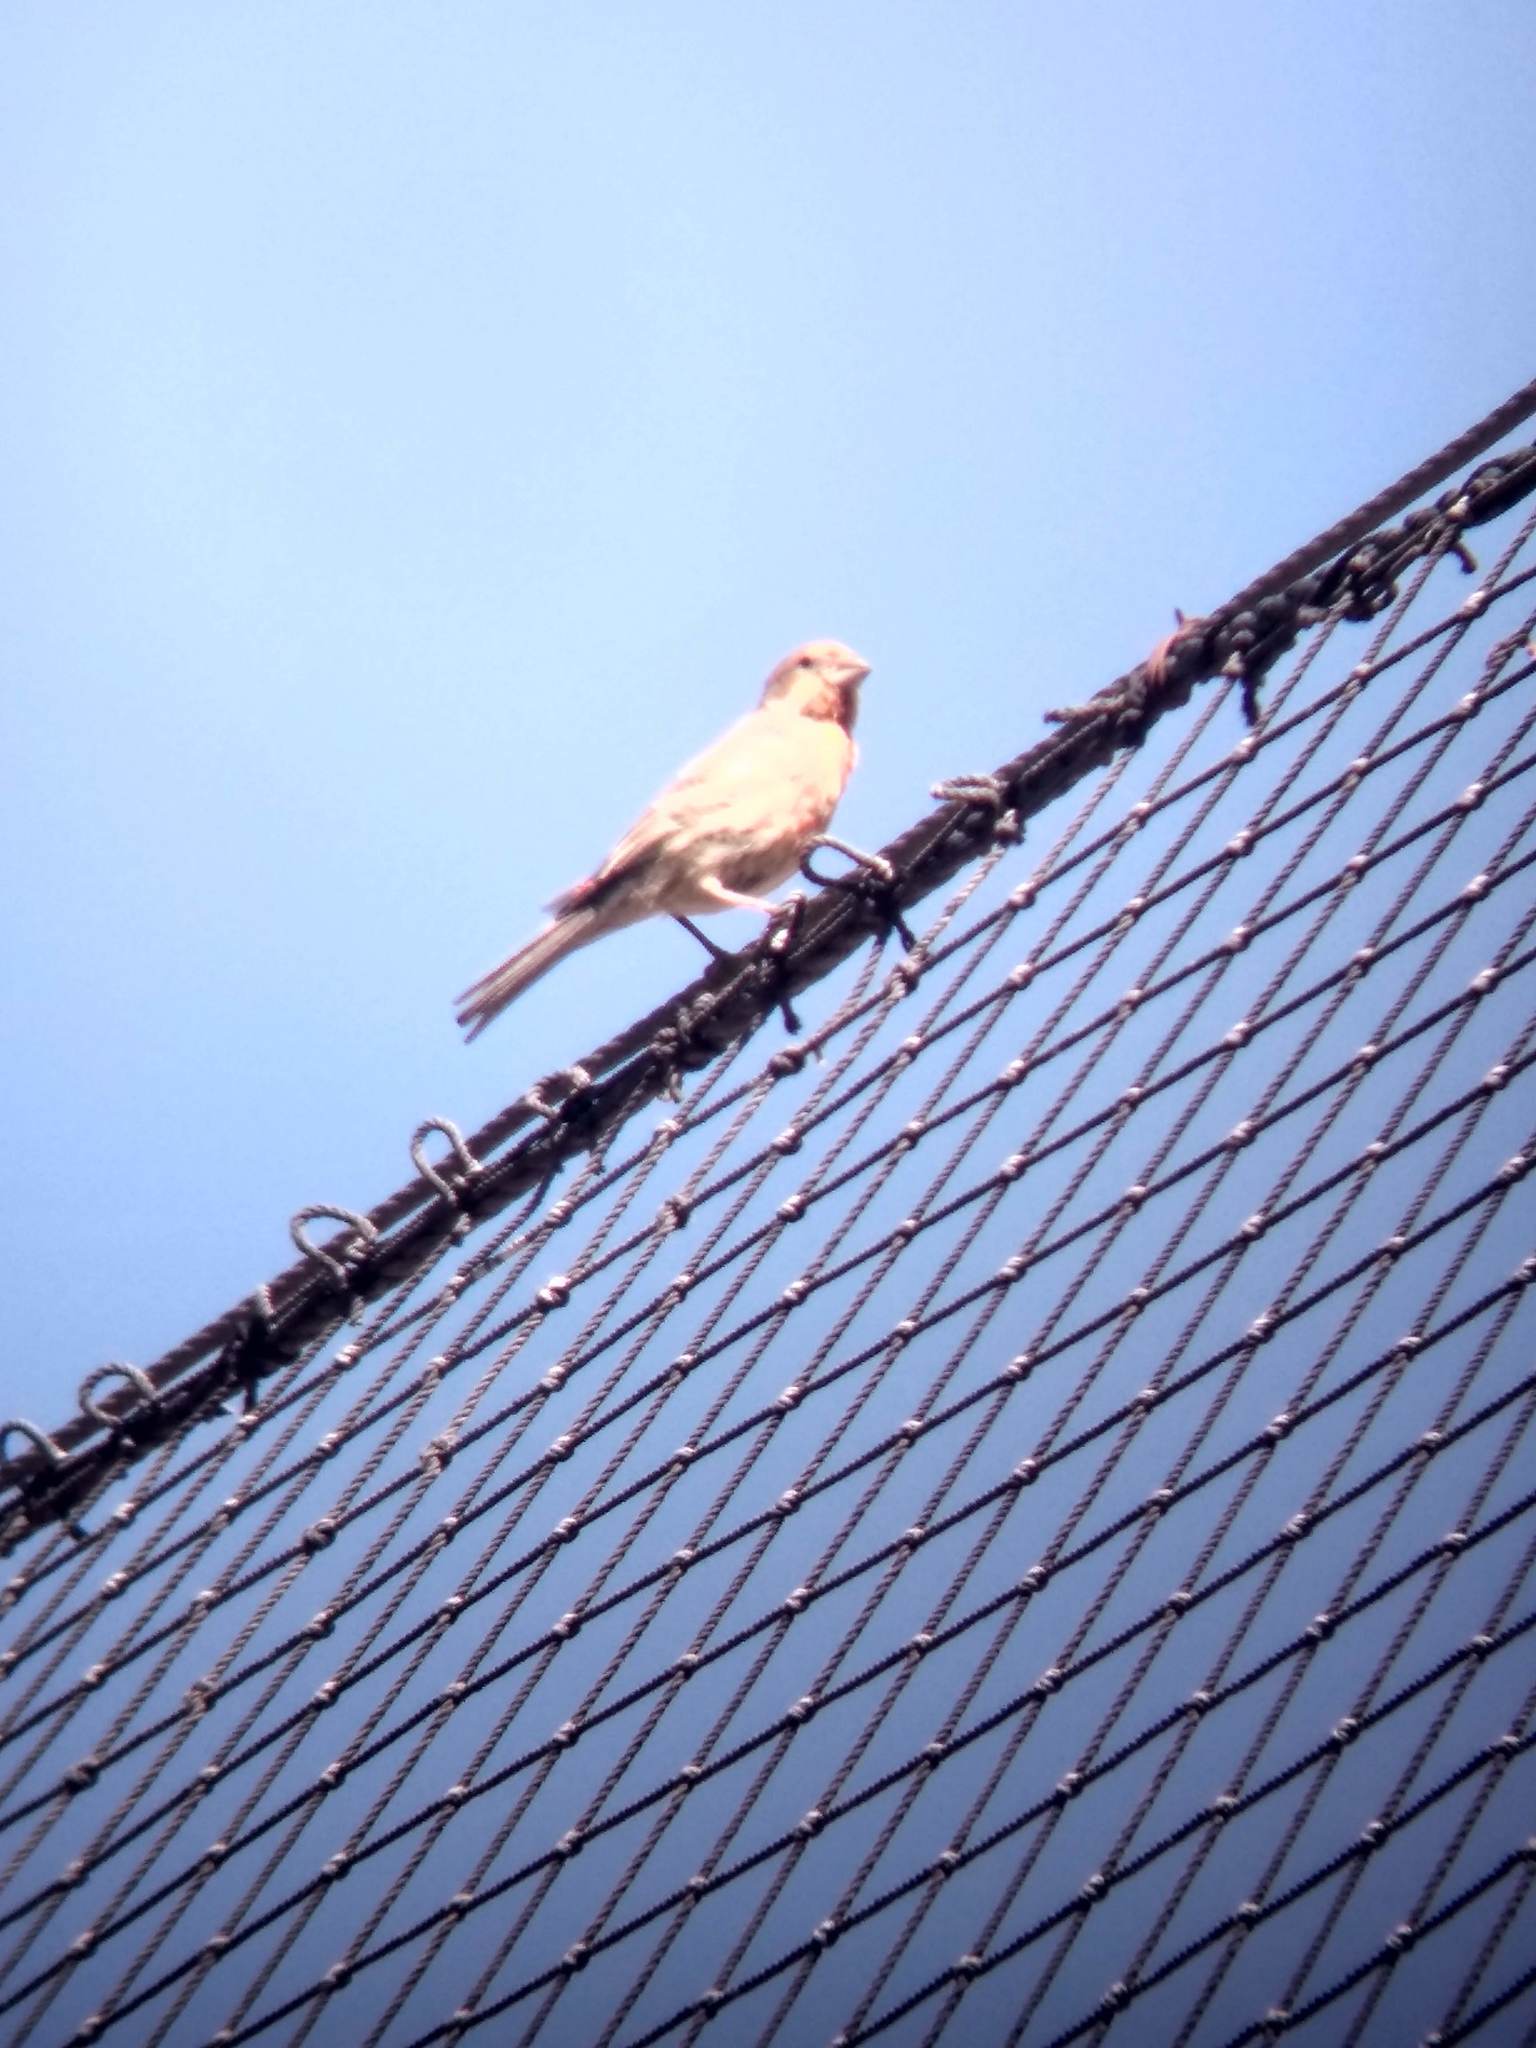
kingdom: Animalia
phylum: Chordata
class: Aves
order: Passeriformes
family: Fringillidae
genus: Haemorhous
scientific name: Haemorhous mexicanus
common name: House finch
